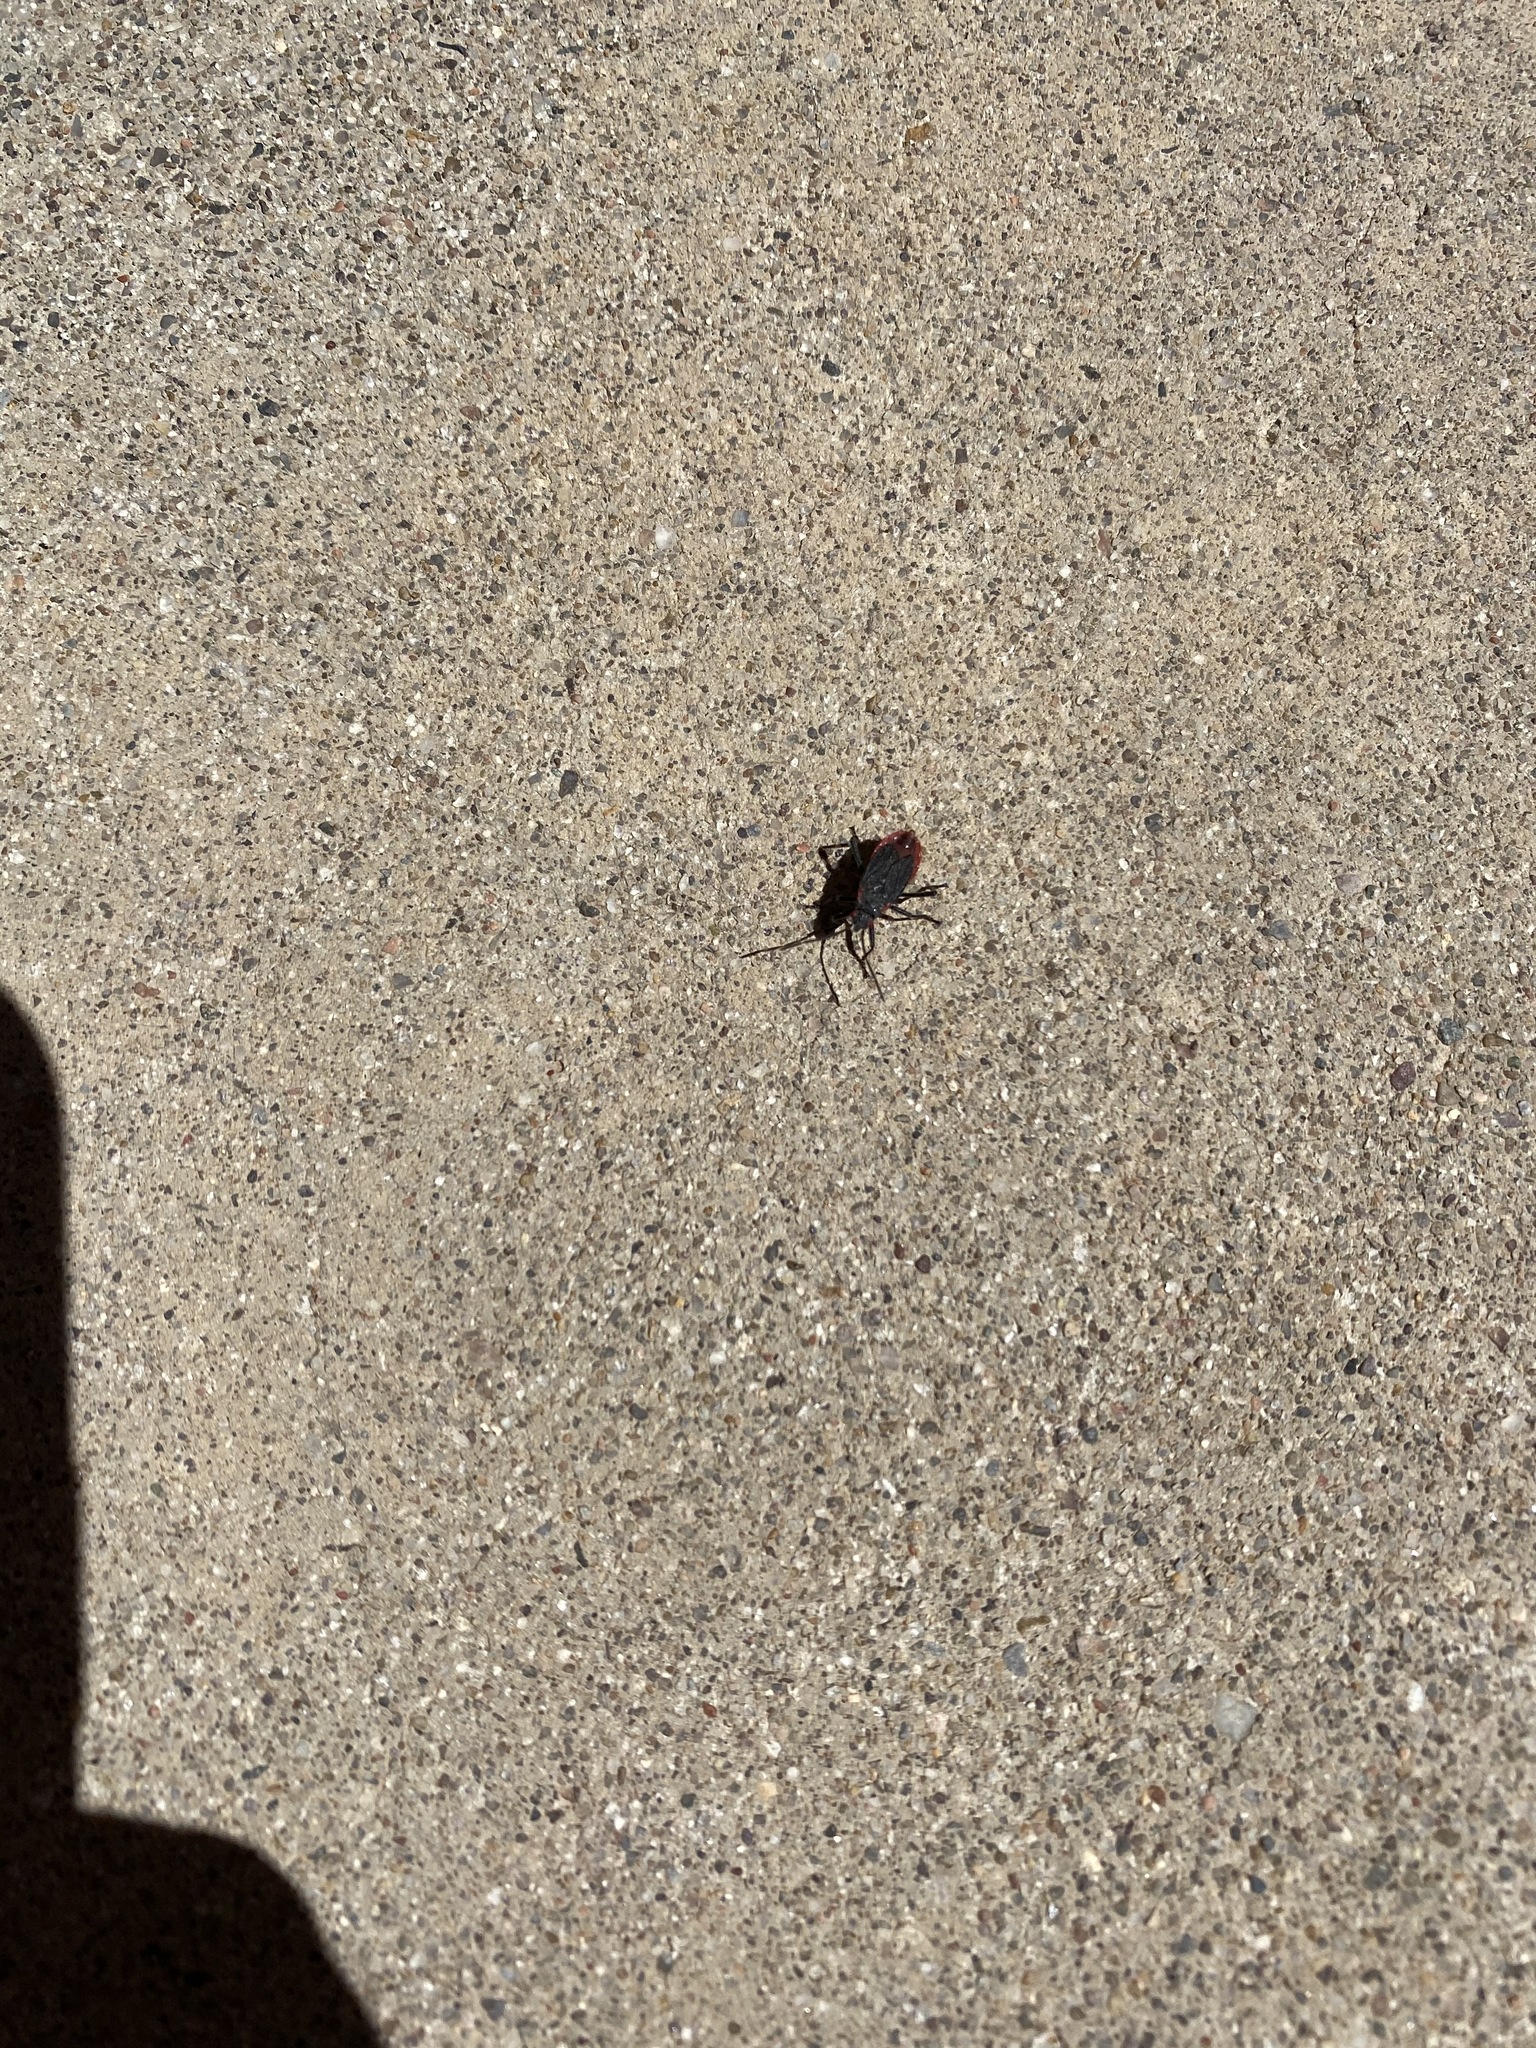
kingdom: Animalia
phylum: Arthropoda
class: Insecta
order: Hemiptera
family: Rhopalidae
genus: Jadera
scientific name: Jadera haematoloma
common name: Red-shouldered bug
